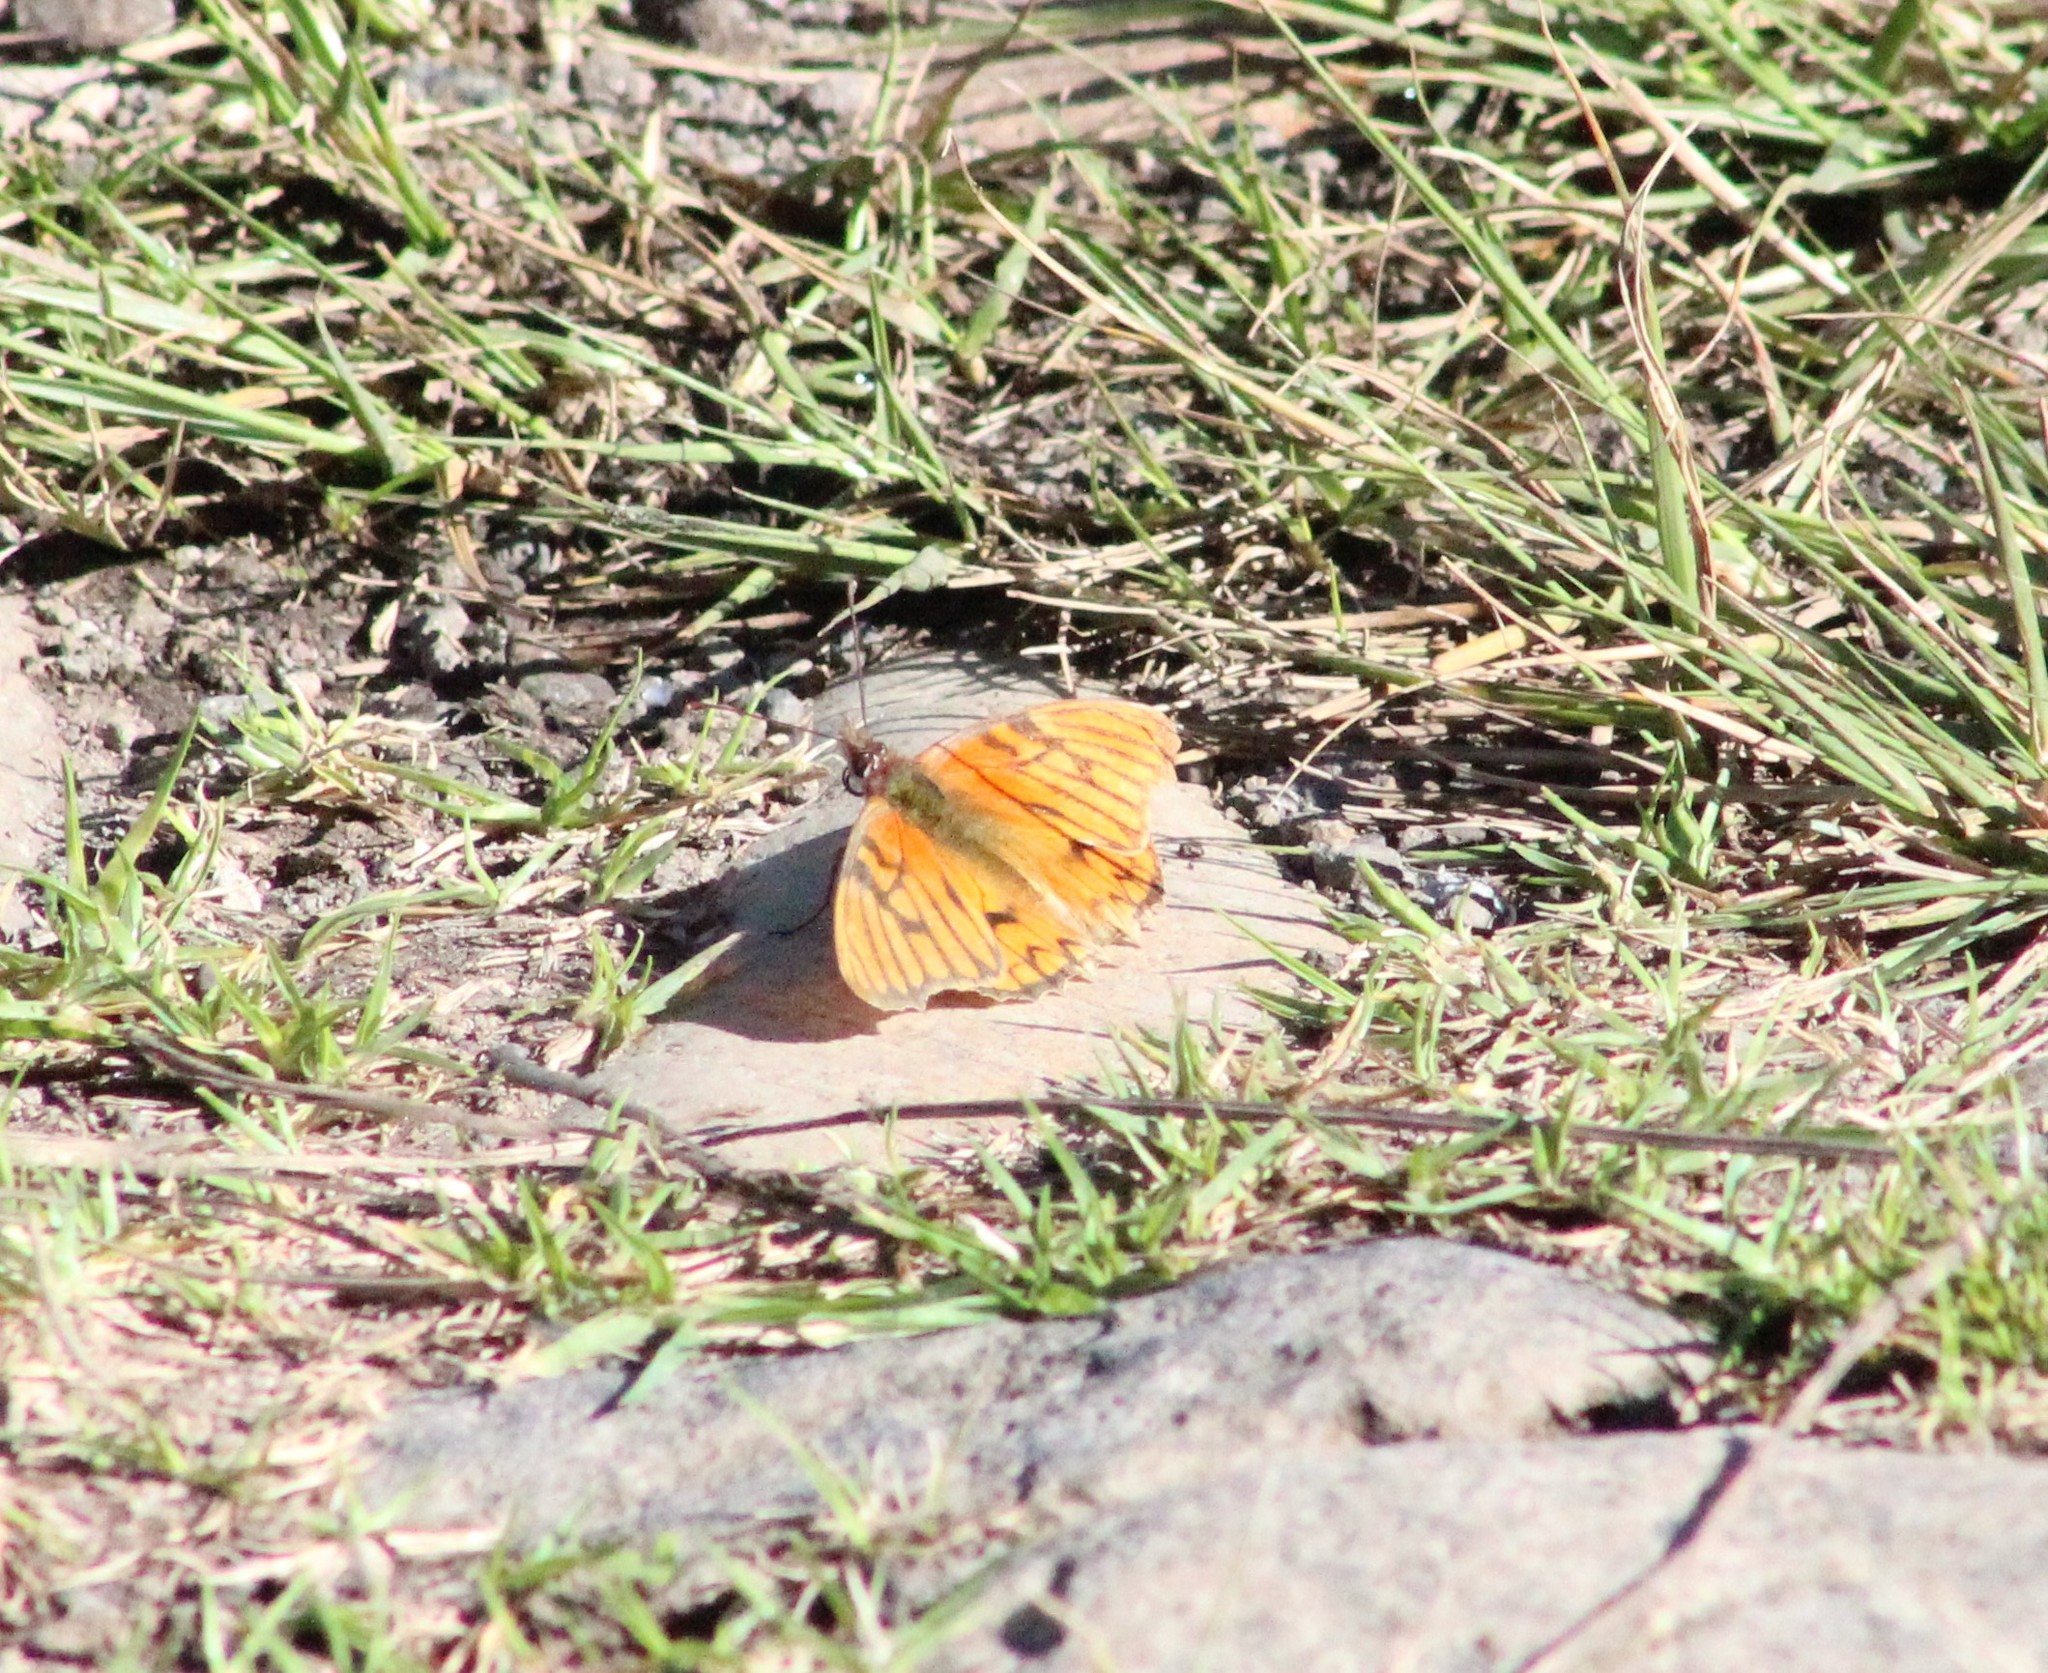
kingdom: Animalia
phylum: Arthropoda
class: Insecta
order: Lepidoptera
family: Nymphalidae
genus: Dione
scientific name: Dione glycera
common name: Andean silverspot
